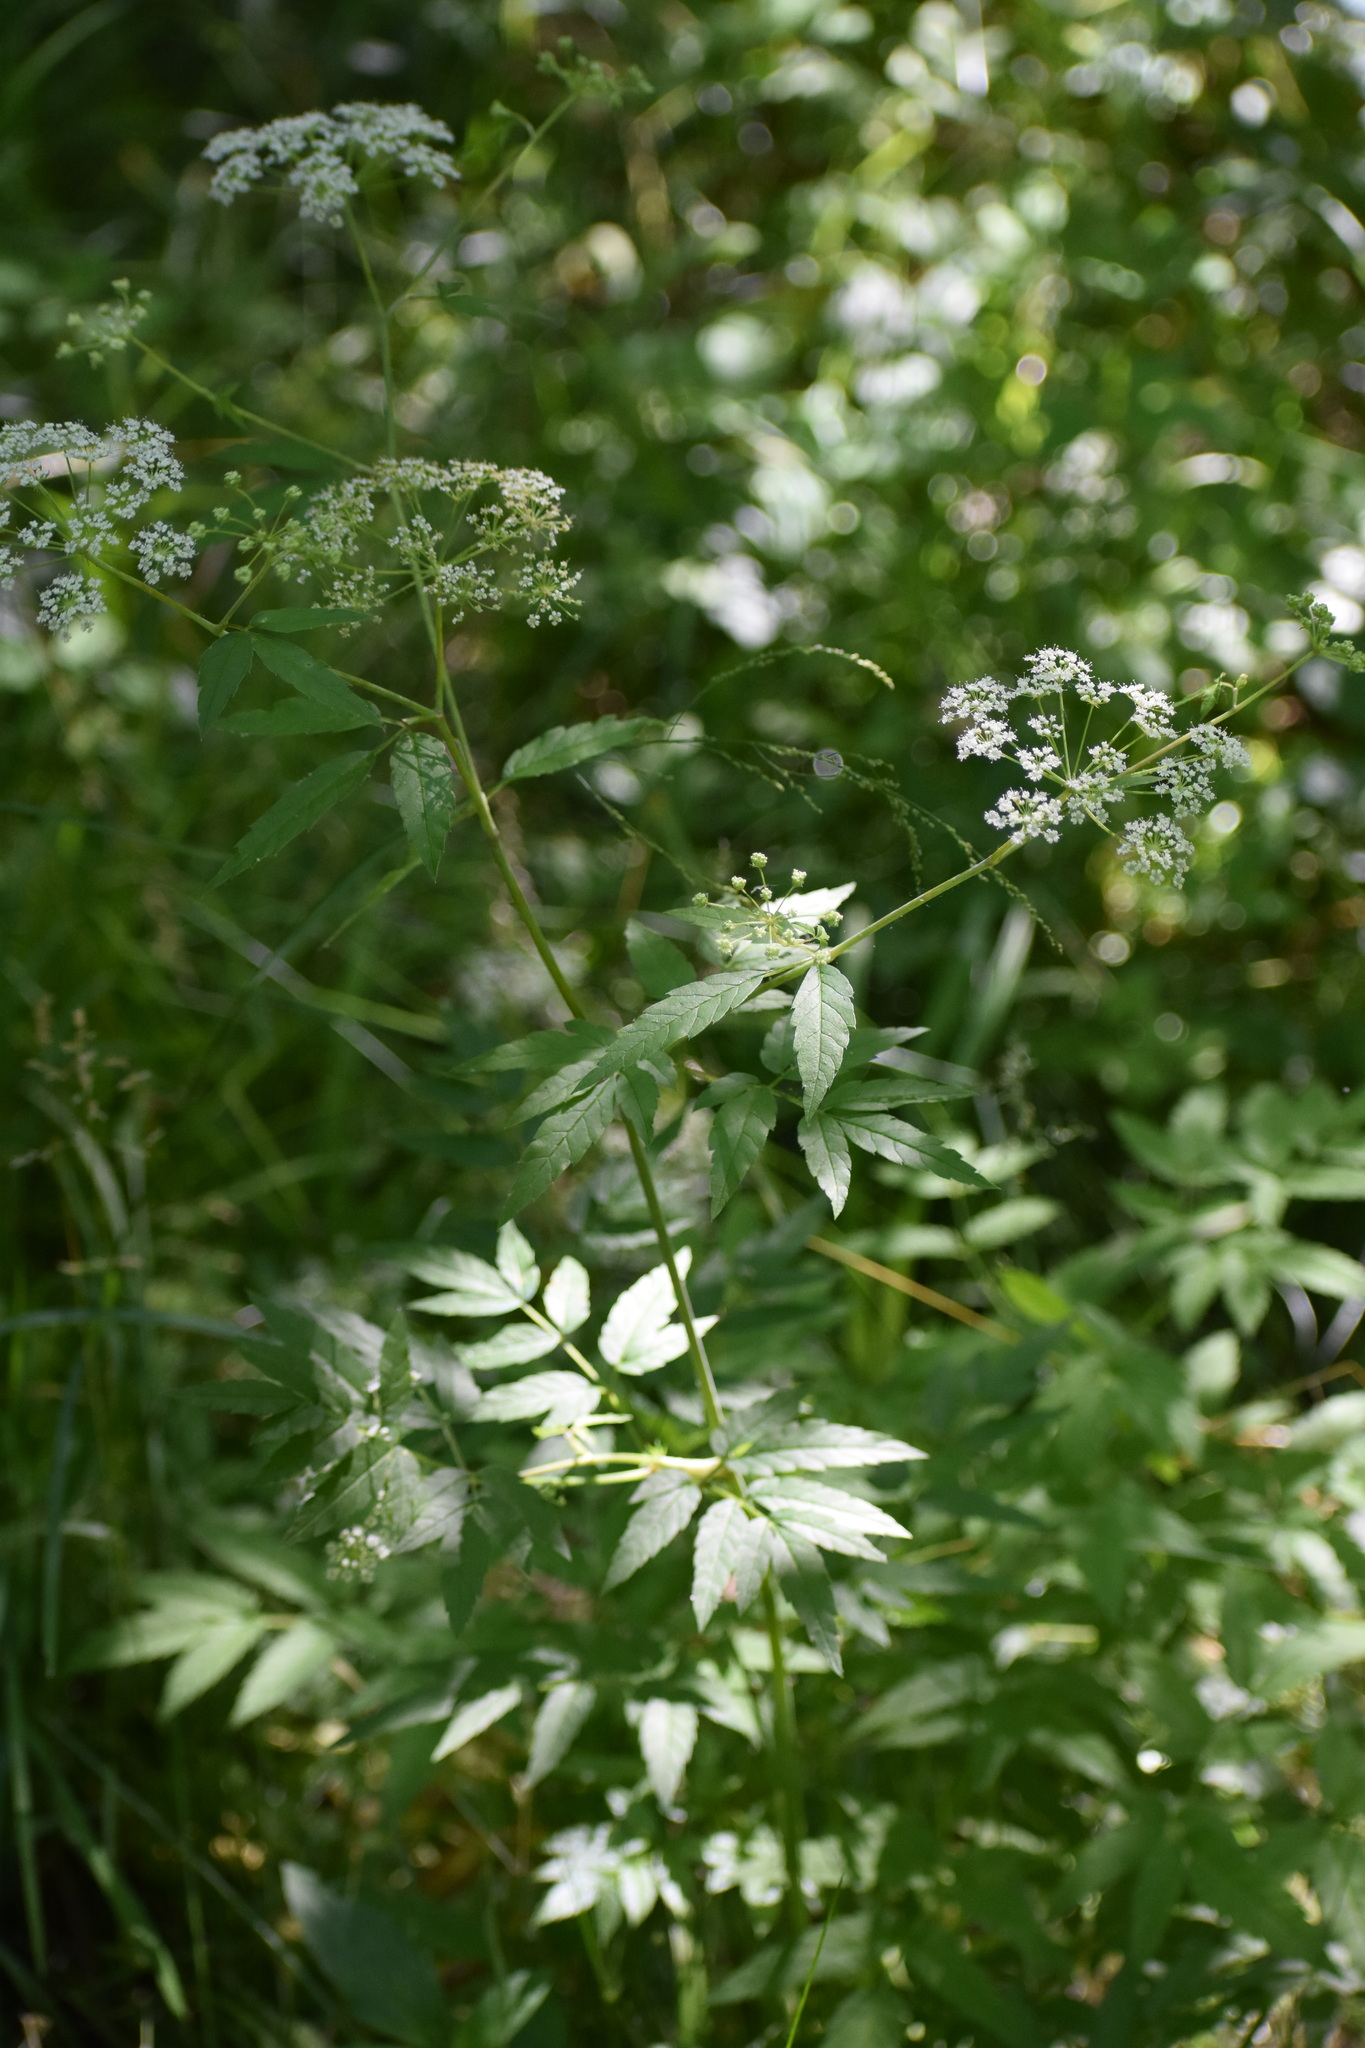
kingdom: Plantae
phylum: Tracheophyta
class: Magnoliopsida
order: Apiales
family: Apiaceae
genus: Cicuta
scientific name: Cicuta maculata
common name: Spotted cowbane
